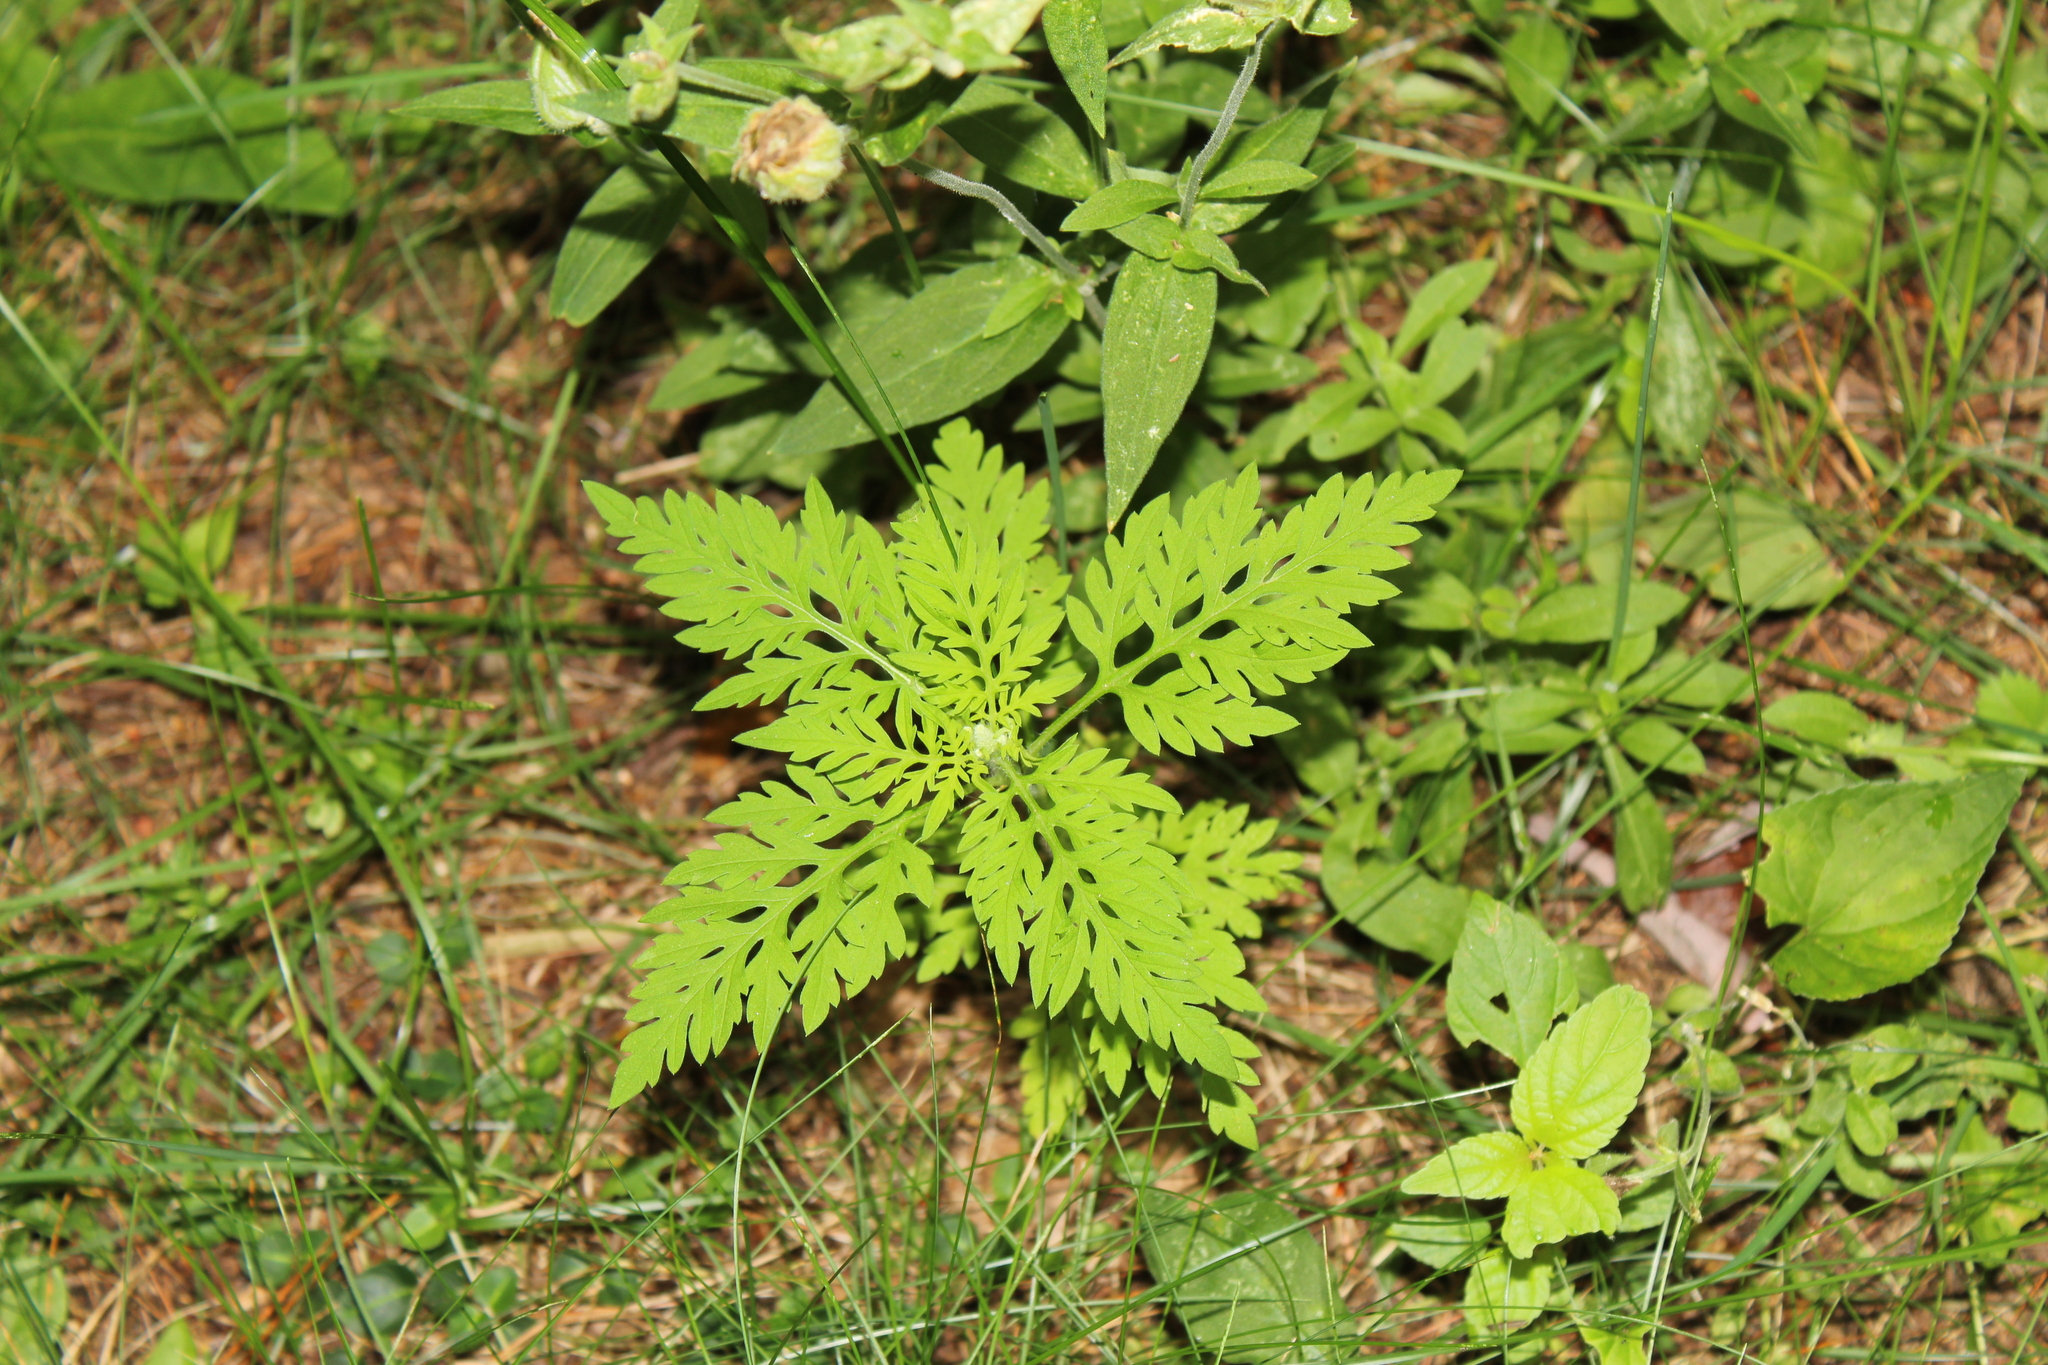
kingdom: Plantae
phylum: Tracheophyta
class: Magnoliopsida
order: Asterales
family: Asteraceae
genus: Ambrosia
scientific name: Ambrosia artemisiifolia
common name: Annual ragweed
